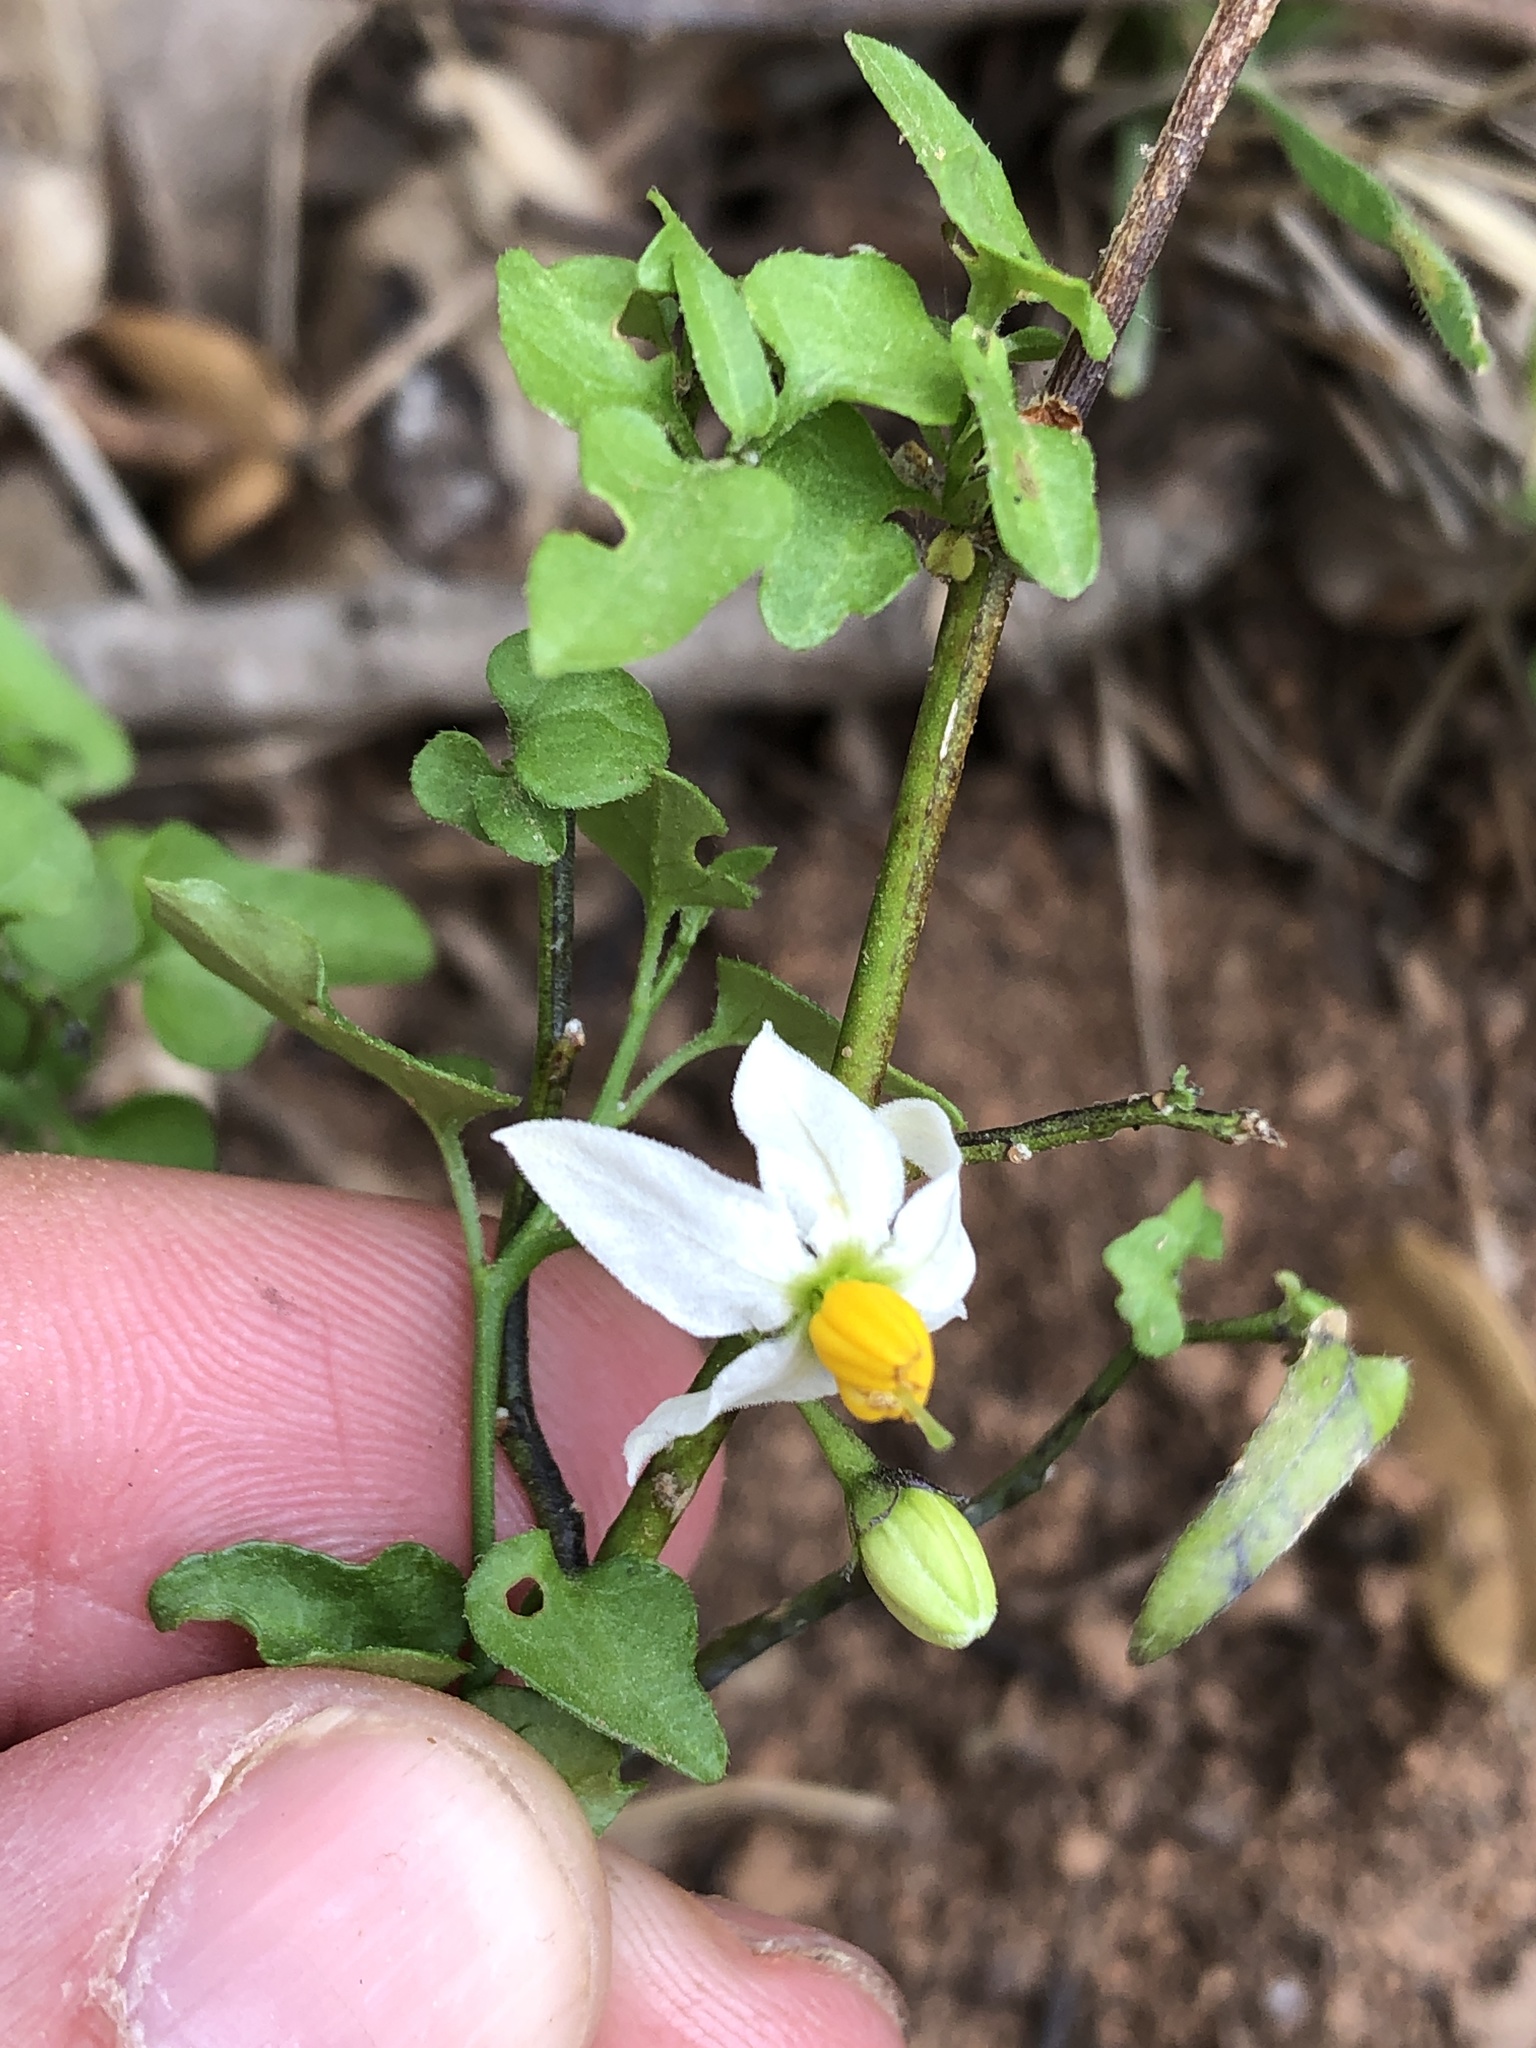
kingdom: Plantae
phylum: Tracheophyta
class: Magnoliopsida
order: Solanales
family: Solanaceae
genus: Solanum
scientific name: Solanum triquetrum
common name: Texas nightshade
